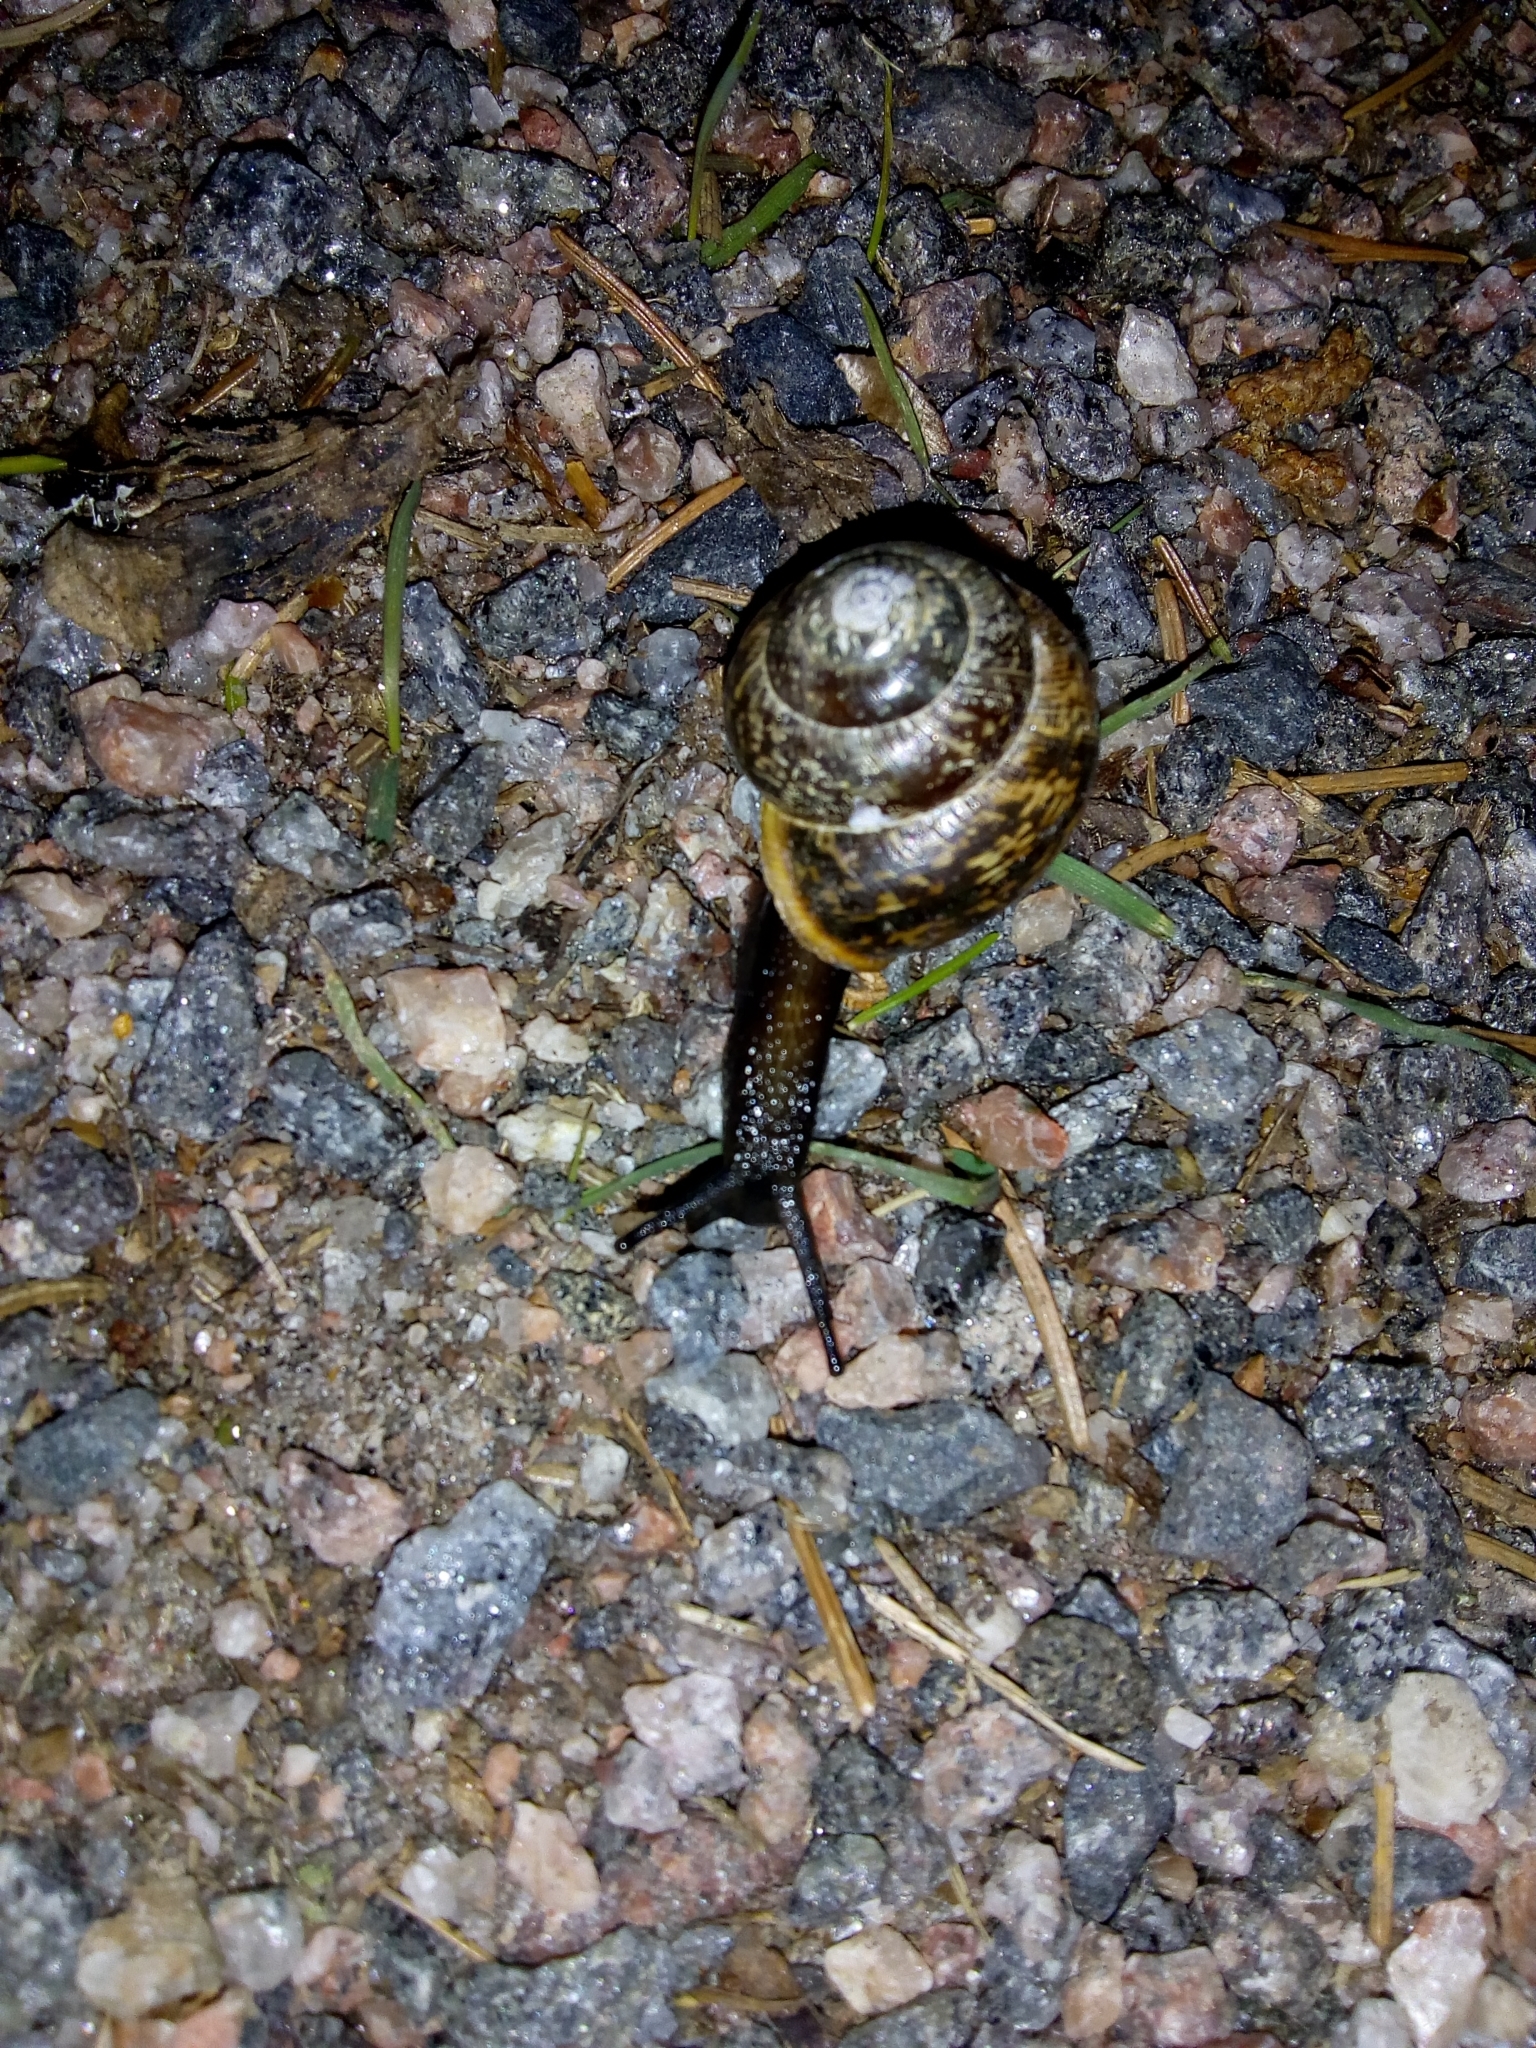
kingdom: Animalia
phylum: Mollusca
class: Gastropoda
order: Stylommatophora
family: Helicidae
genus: Arianta
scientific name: Arianta arbustorum
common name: Copse snail
